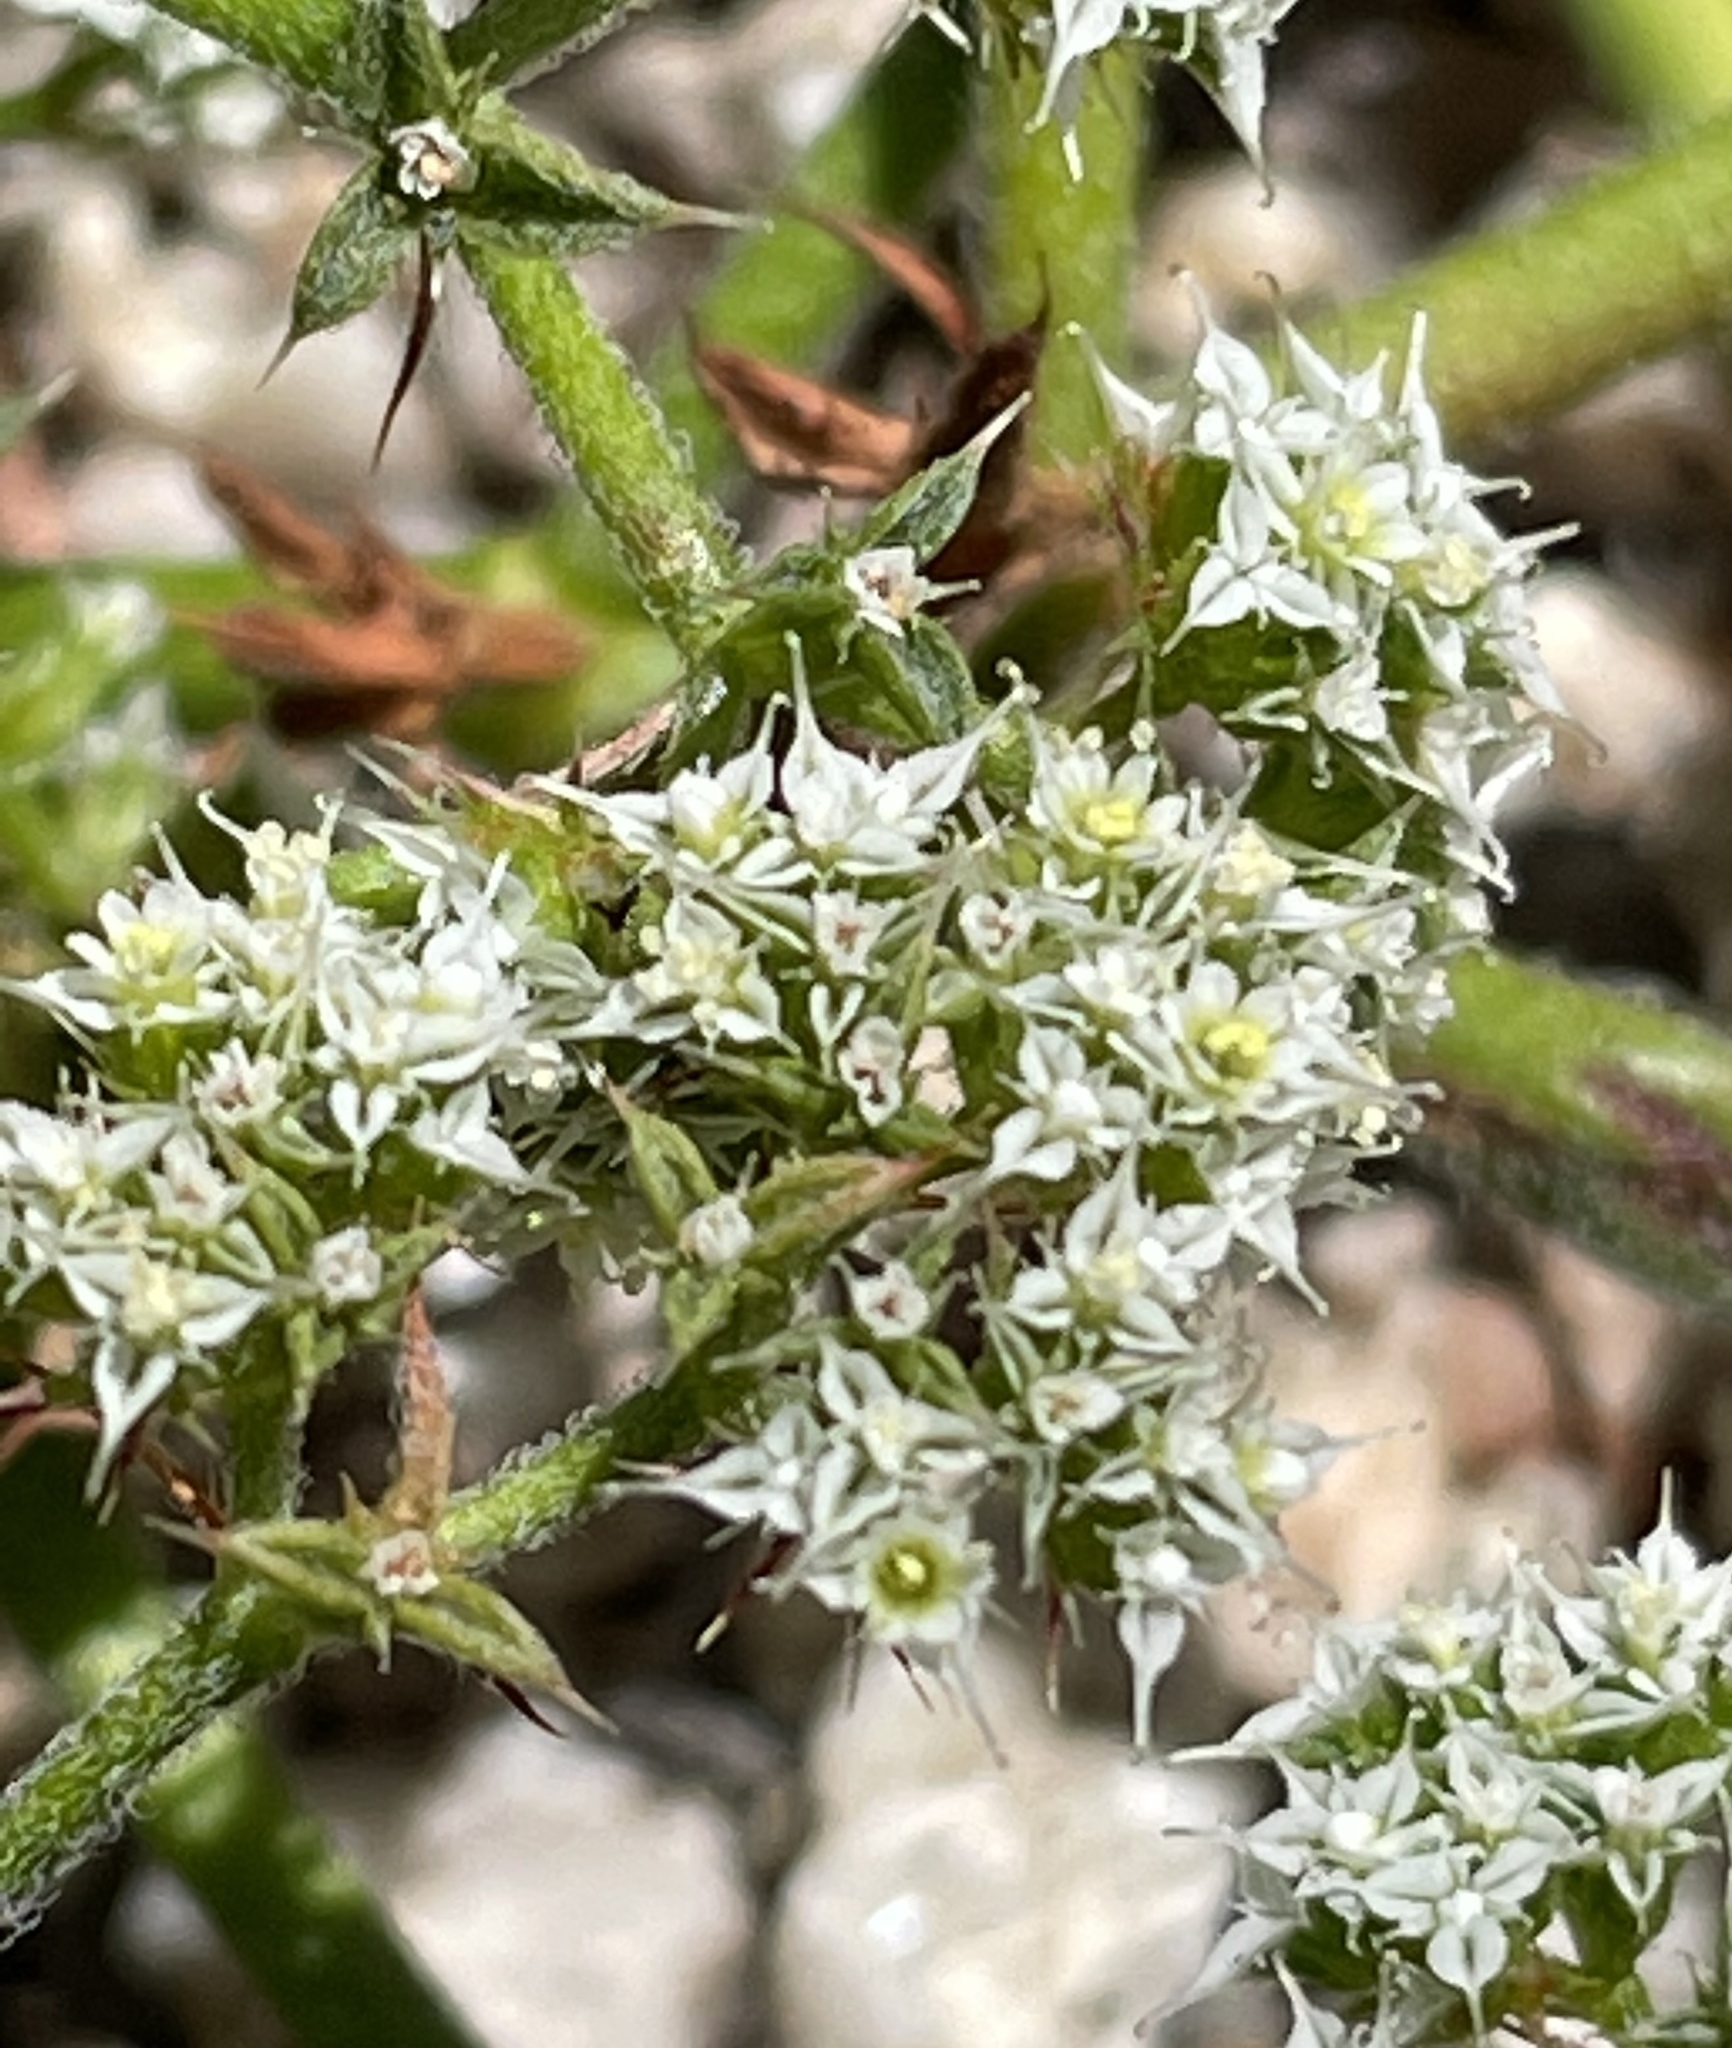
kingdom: Plantae
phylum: Tracheophyta
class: Magnoliopsida
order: Caryophyllales
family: Polygonaceae
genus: Chorizanthe
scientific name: Chorizanthe diffusa
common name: Diffuse spineflower
